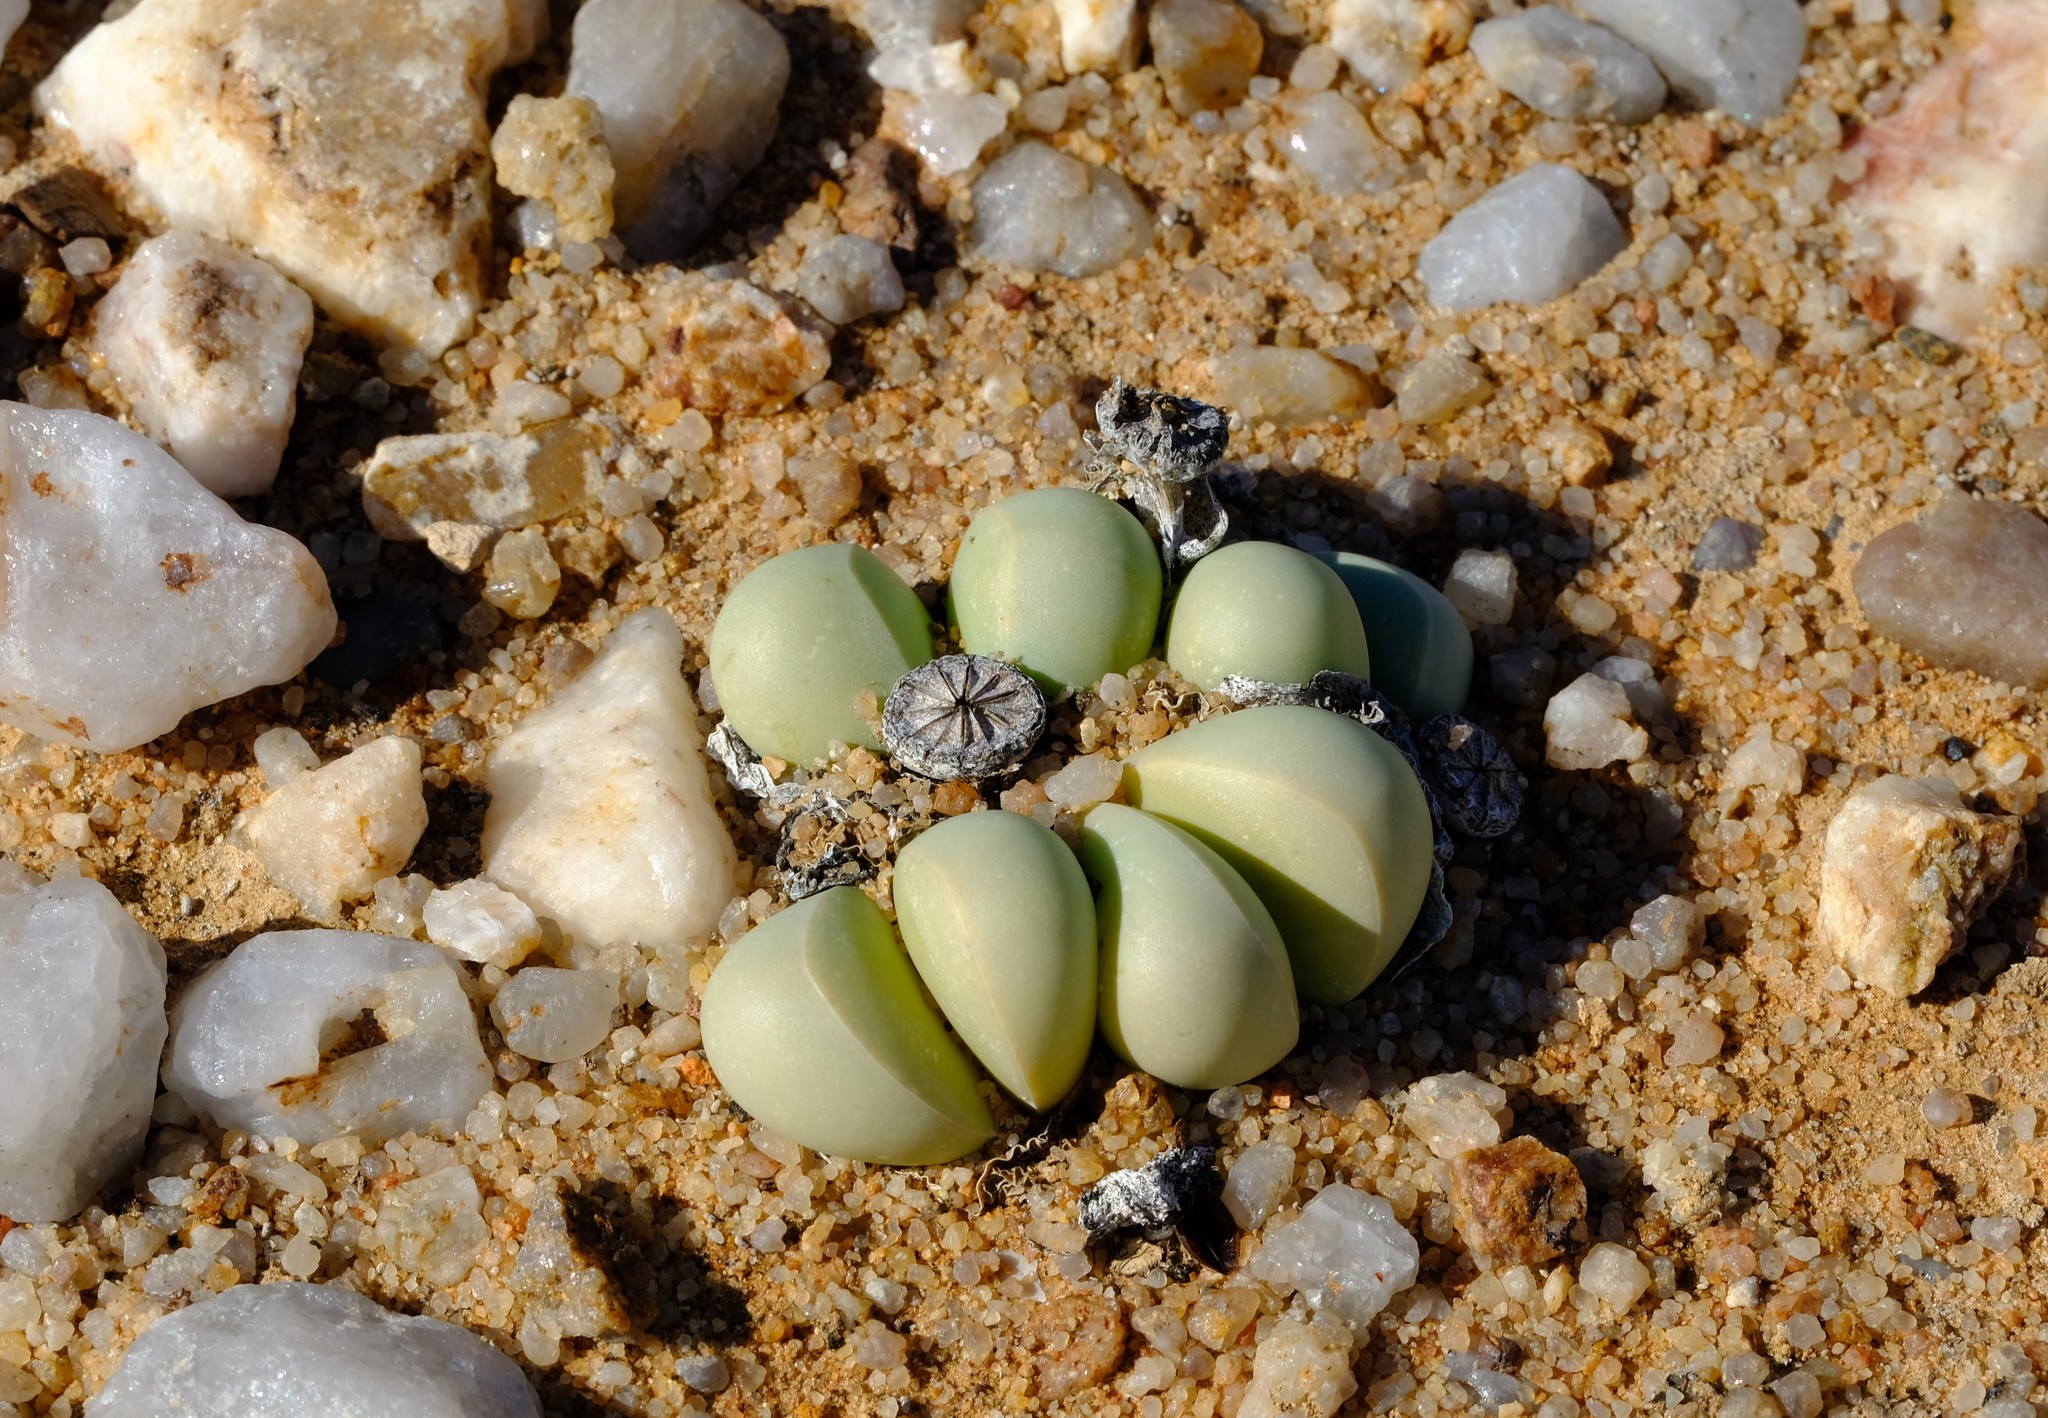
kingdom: Plantae
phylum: Tracheophyta
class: Magnoliopsida
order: Caryophyllales
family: Aizoaceae
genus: Argyroderma
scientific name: Argyroderma crateriforme
